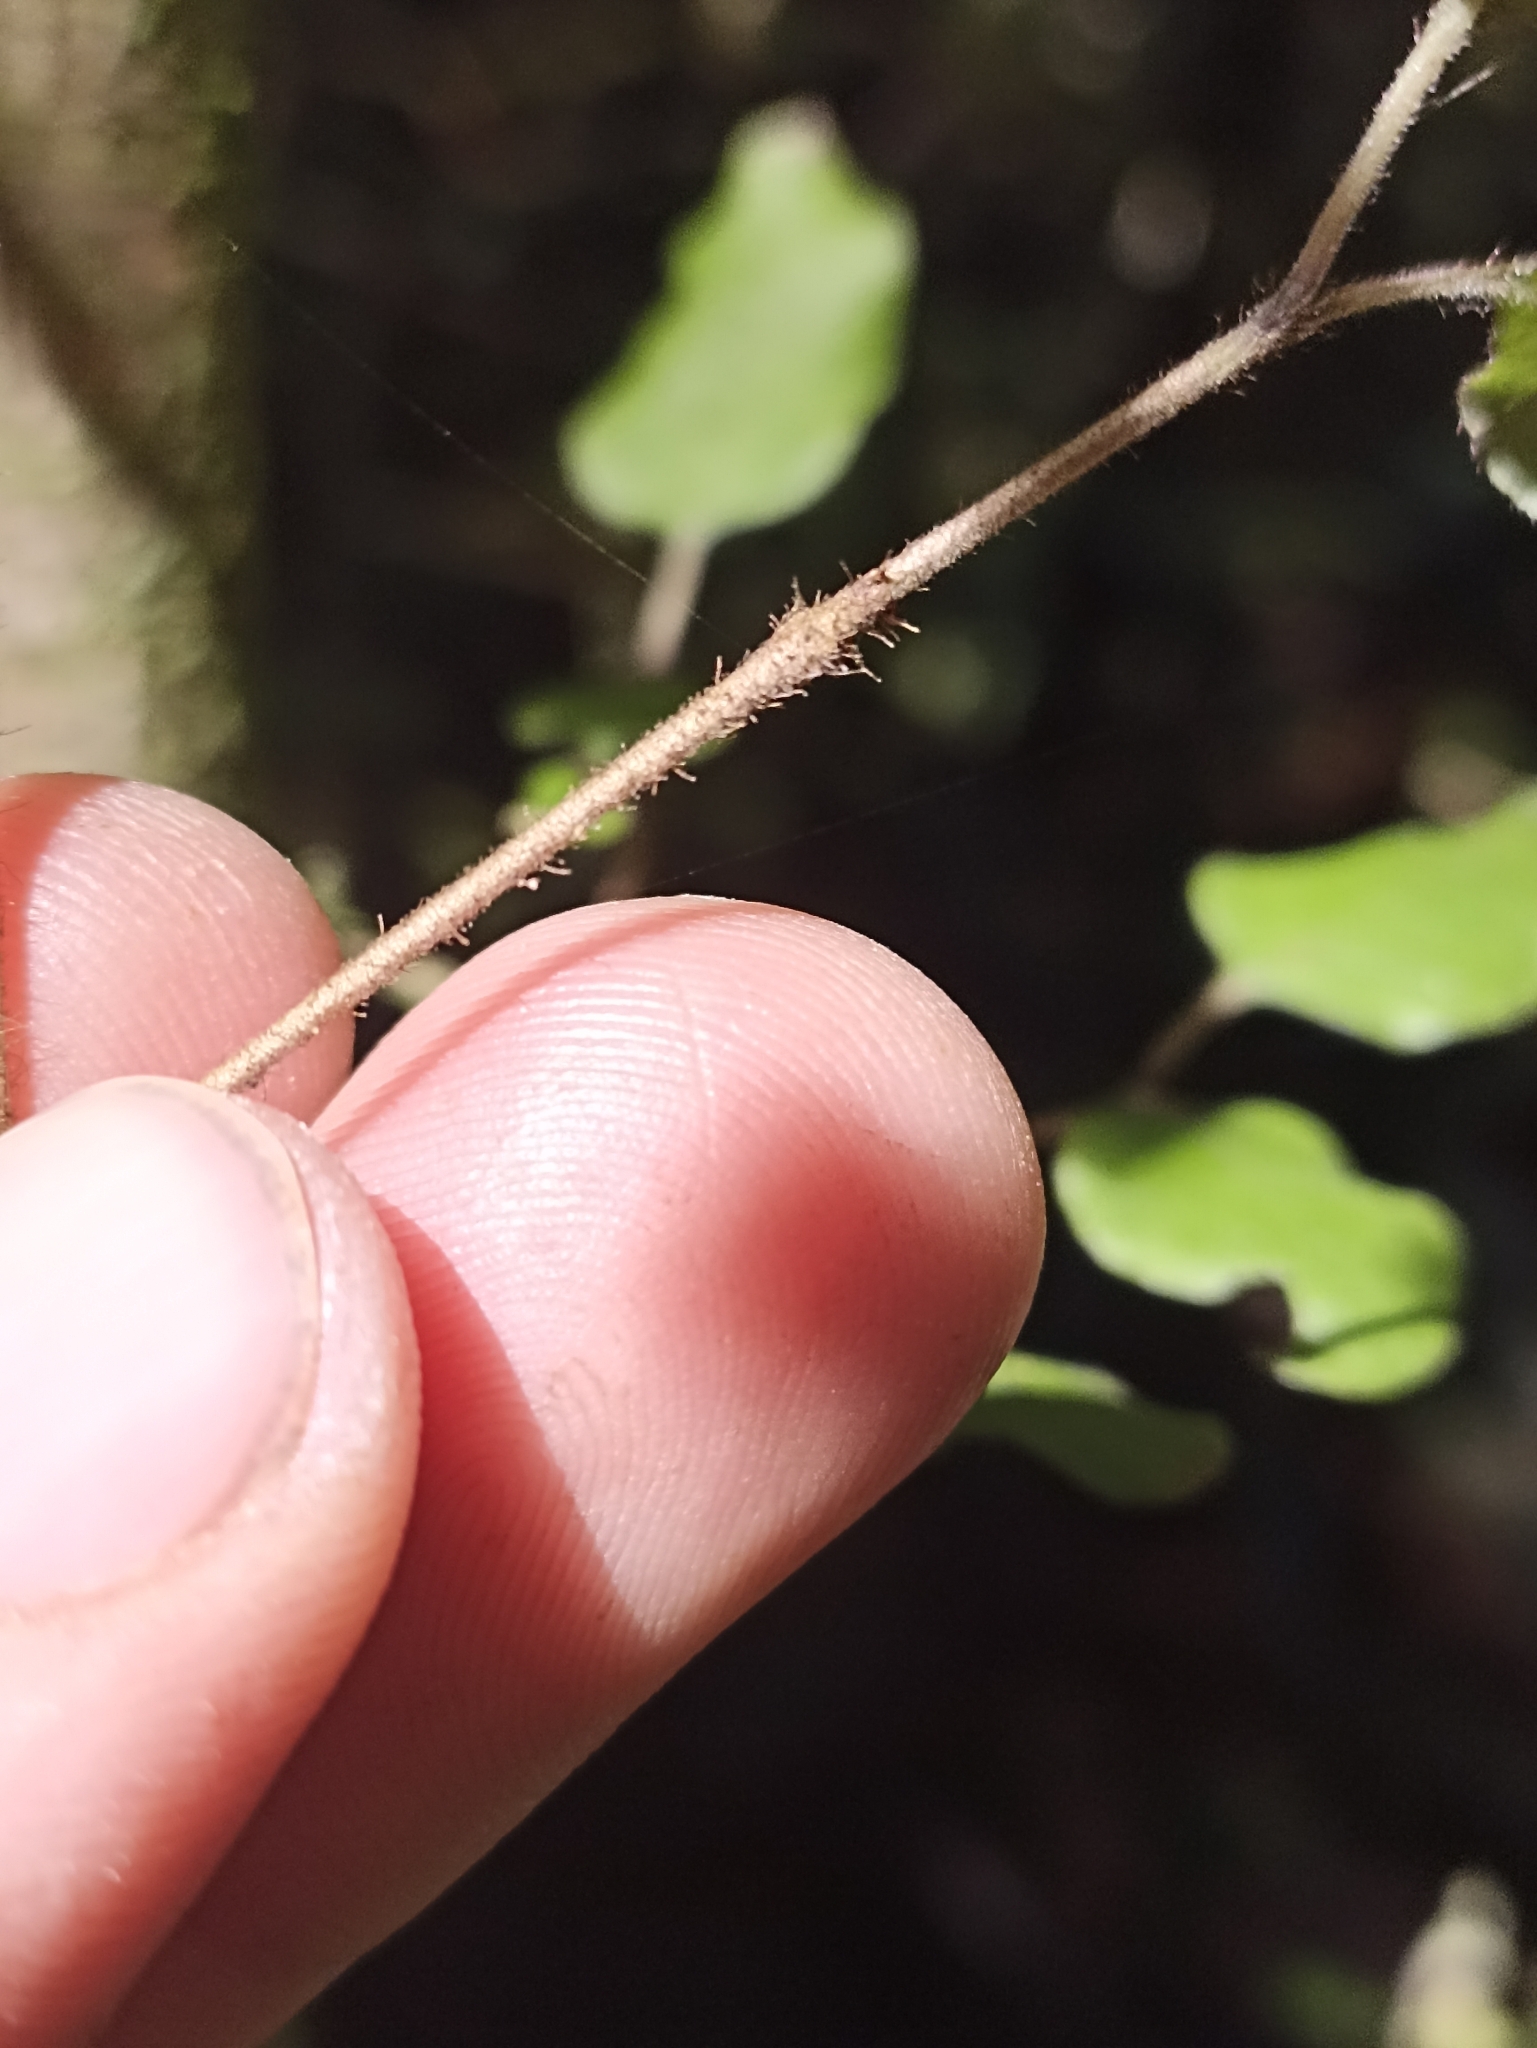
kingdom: Plantae
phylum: Tracheophyta
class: Magnoliopsida
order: Gentianales
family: Rubiaceae
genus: Coprosma
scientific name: Coprosma rotundifolia
